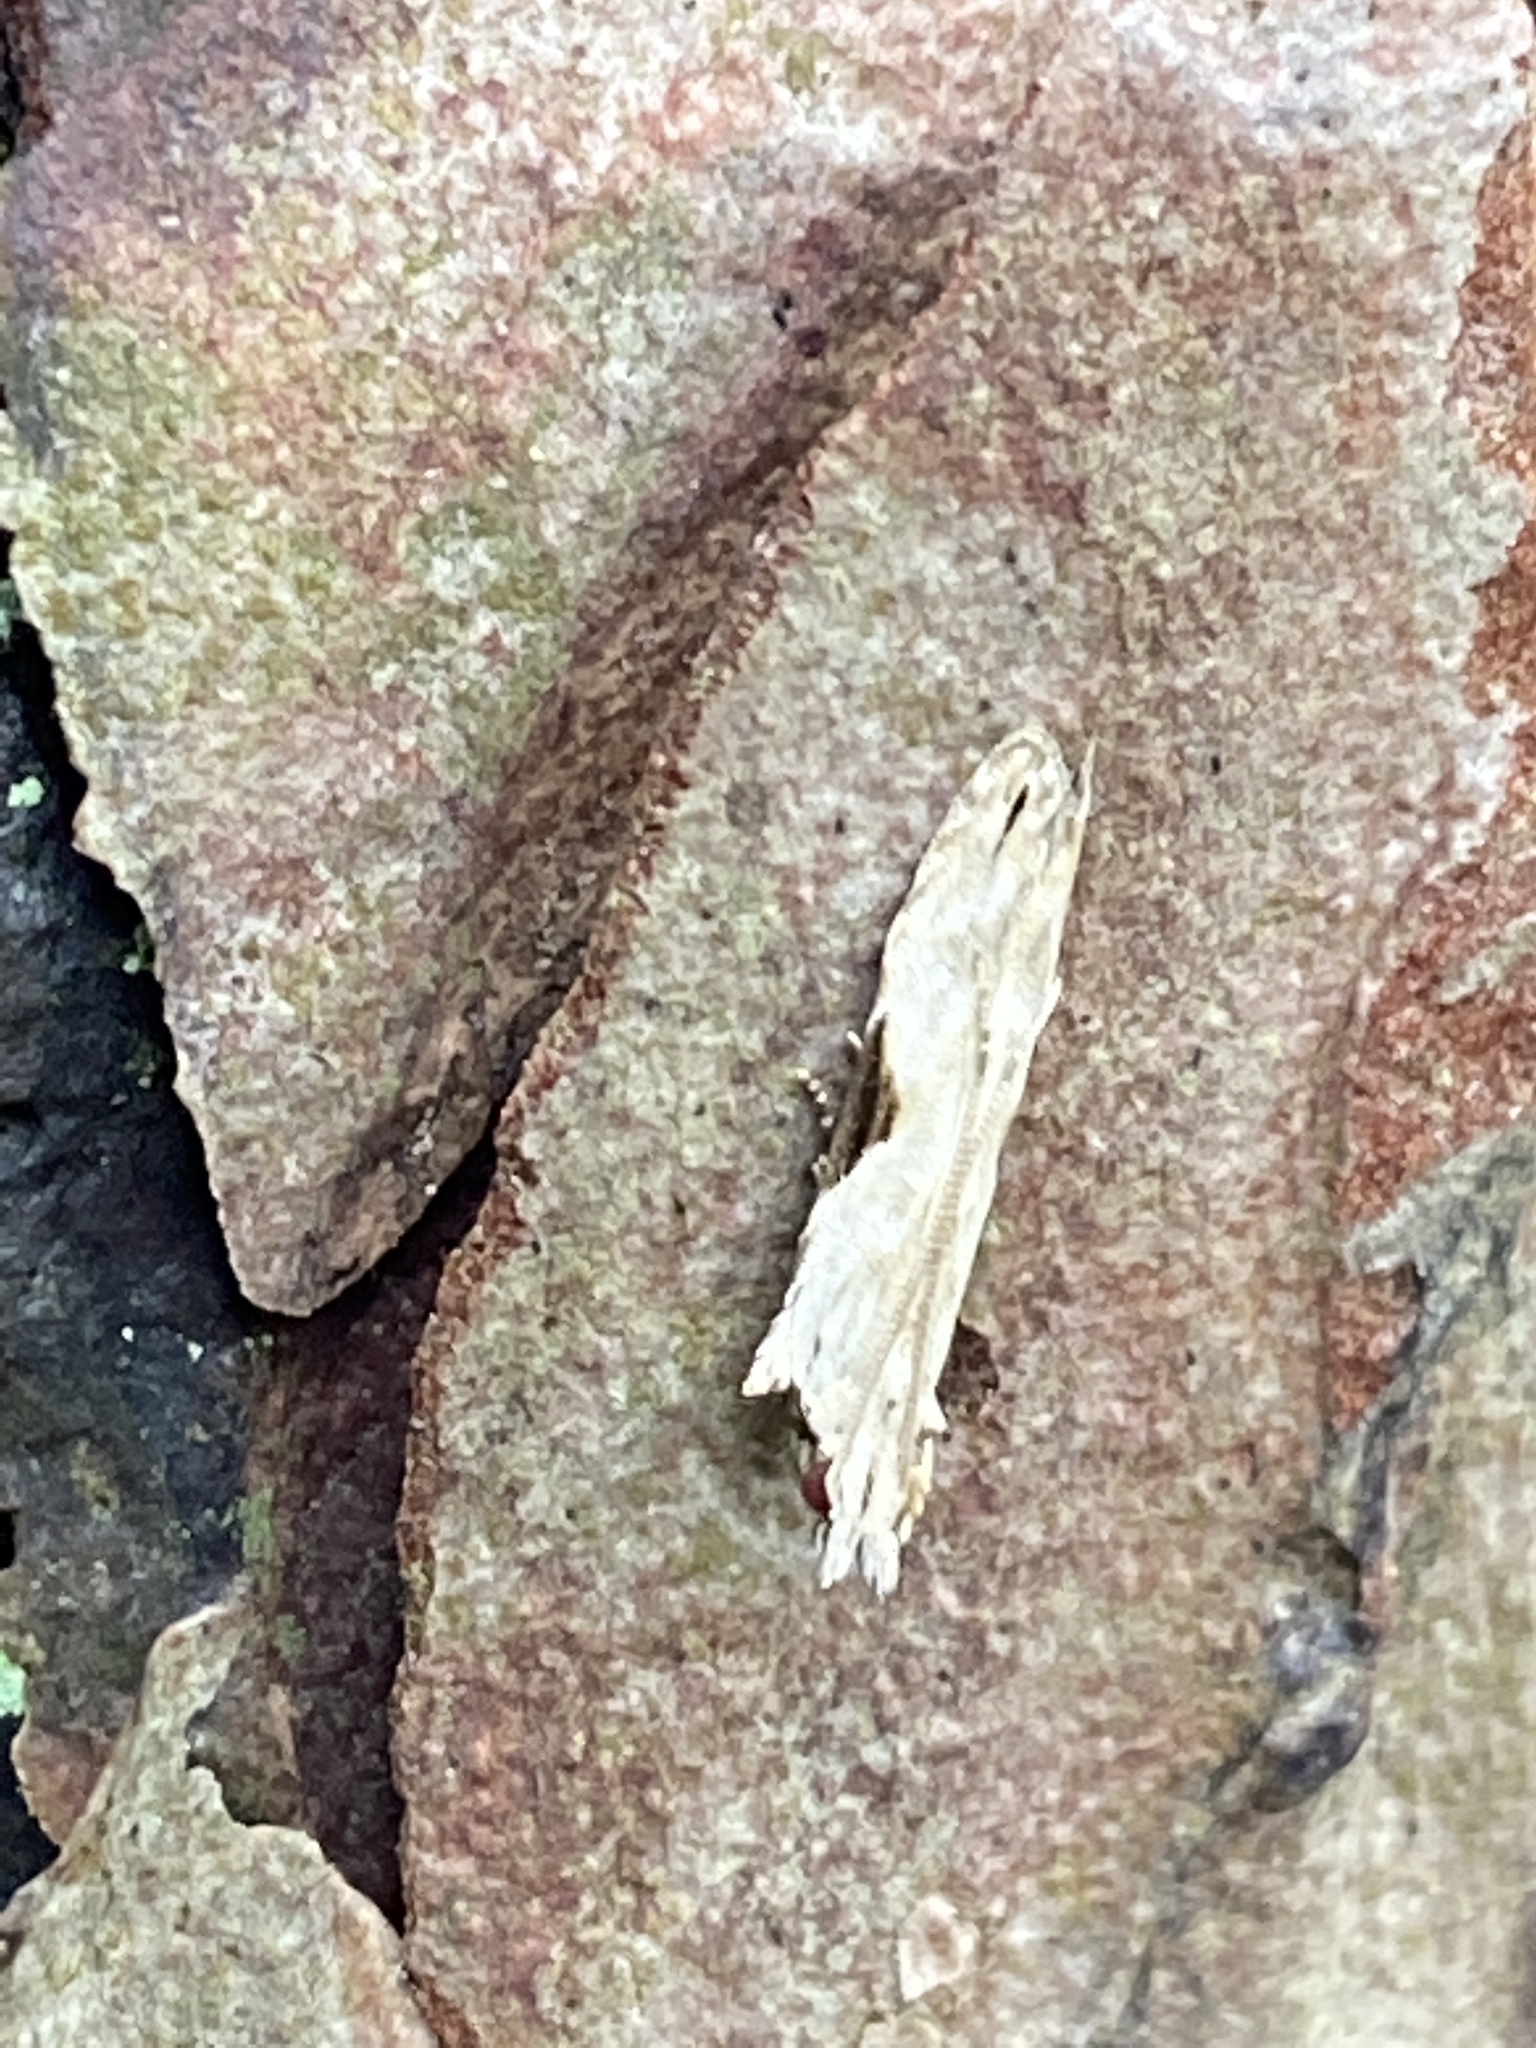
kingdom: Animalia
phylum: Arthropoda
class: Insecta
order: Lepidoptera
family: Gelechiidae
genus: Hypatima
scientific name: Hypatima rhomboidella
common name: Square-spot crest
